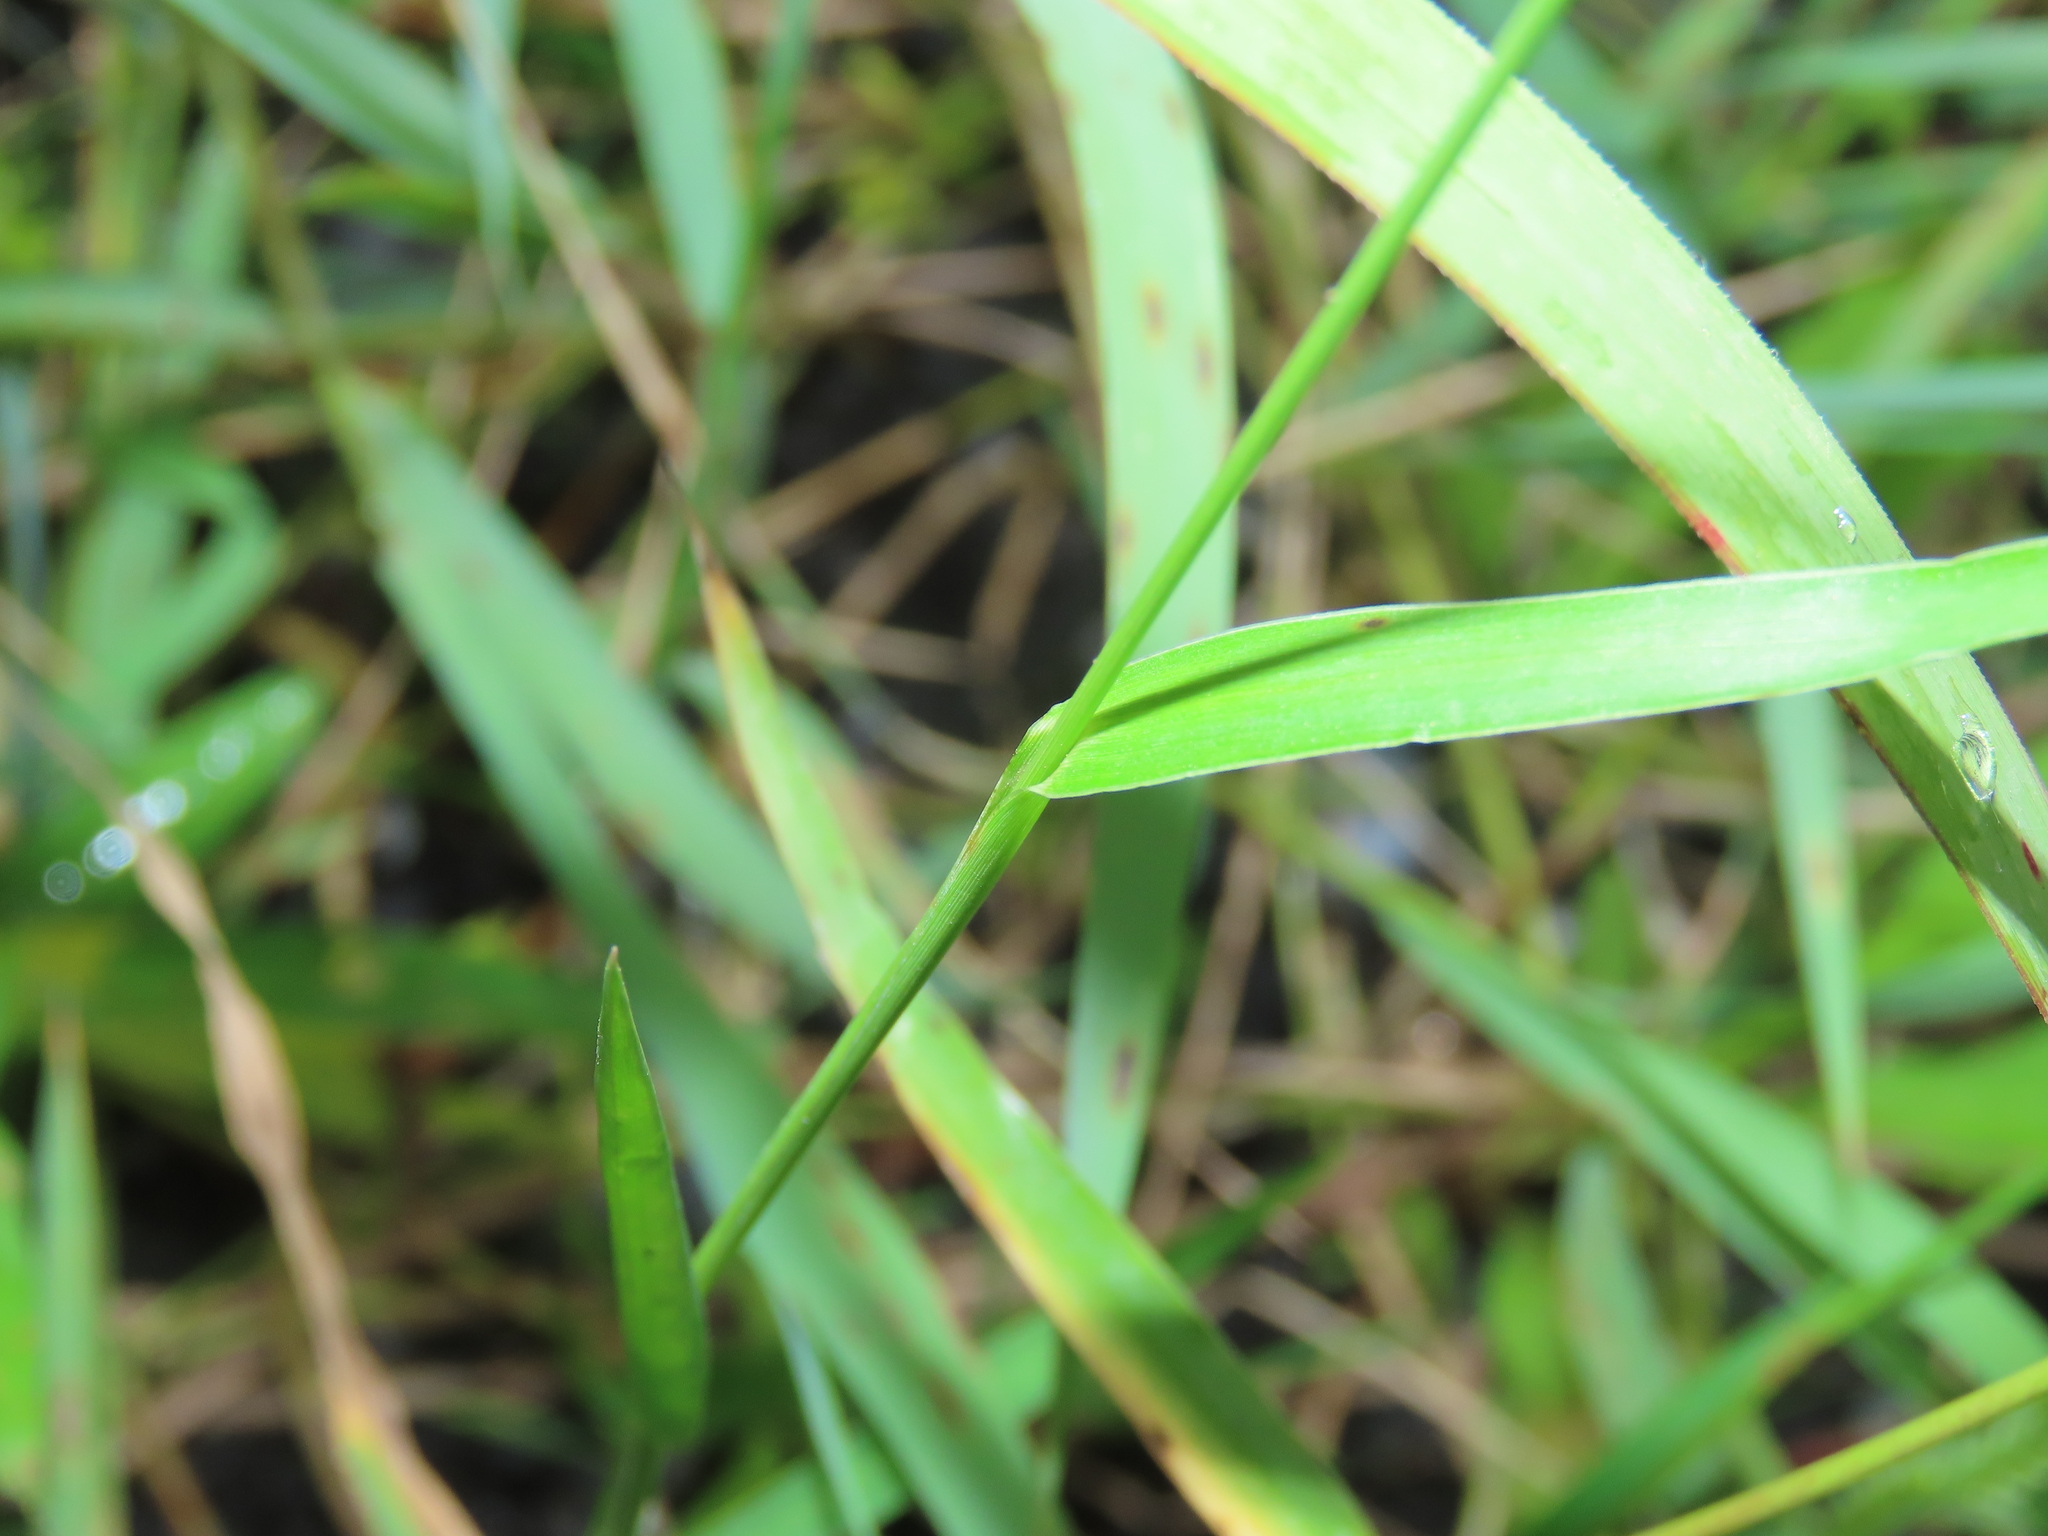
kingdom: Plantae
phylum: Tracheophyta
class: Liliopsida
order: Poales
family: Poaceae
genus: Echinochloa
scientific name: Echinochloa crus-galli
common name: Cockspur
